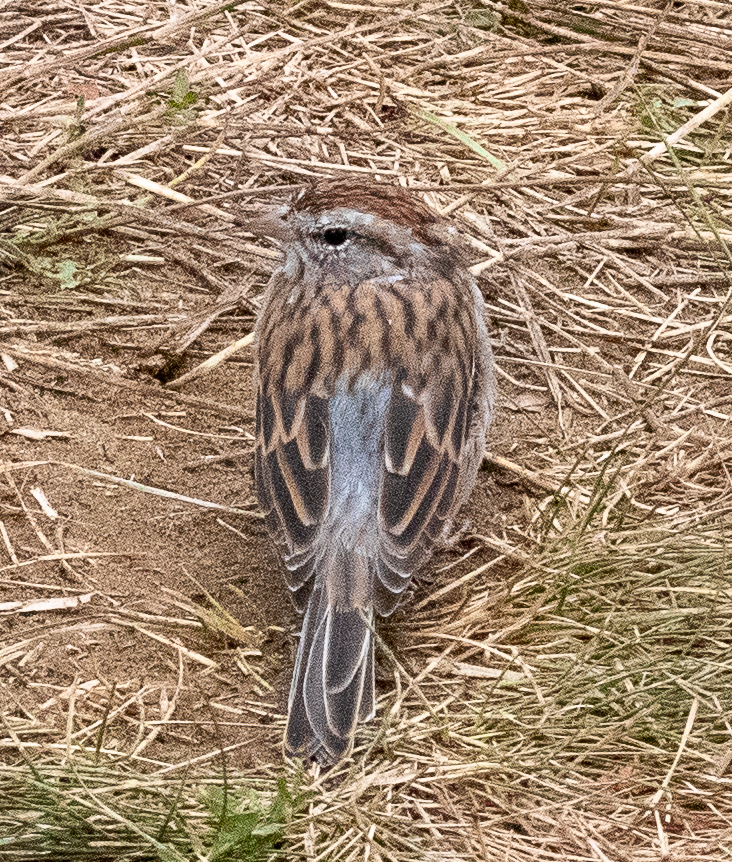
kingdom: Animalia
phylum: Chordata
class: Aves
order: Passeriformes
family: Passerellidae
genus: Spizella
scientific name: Spizella passerina
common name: Chipping sparrow
